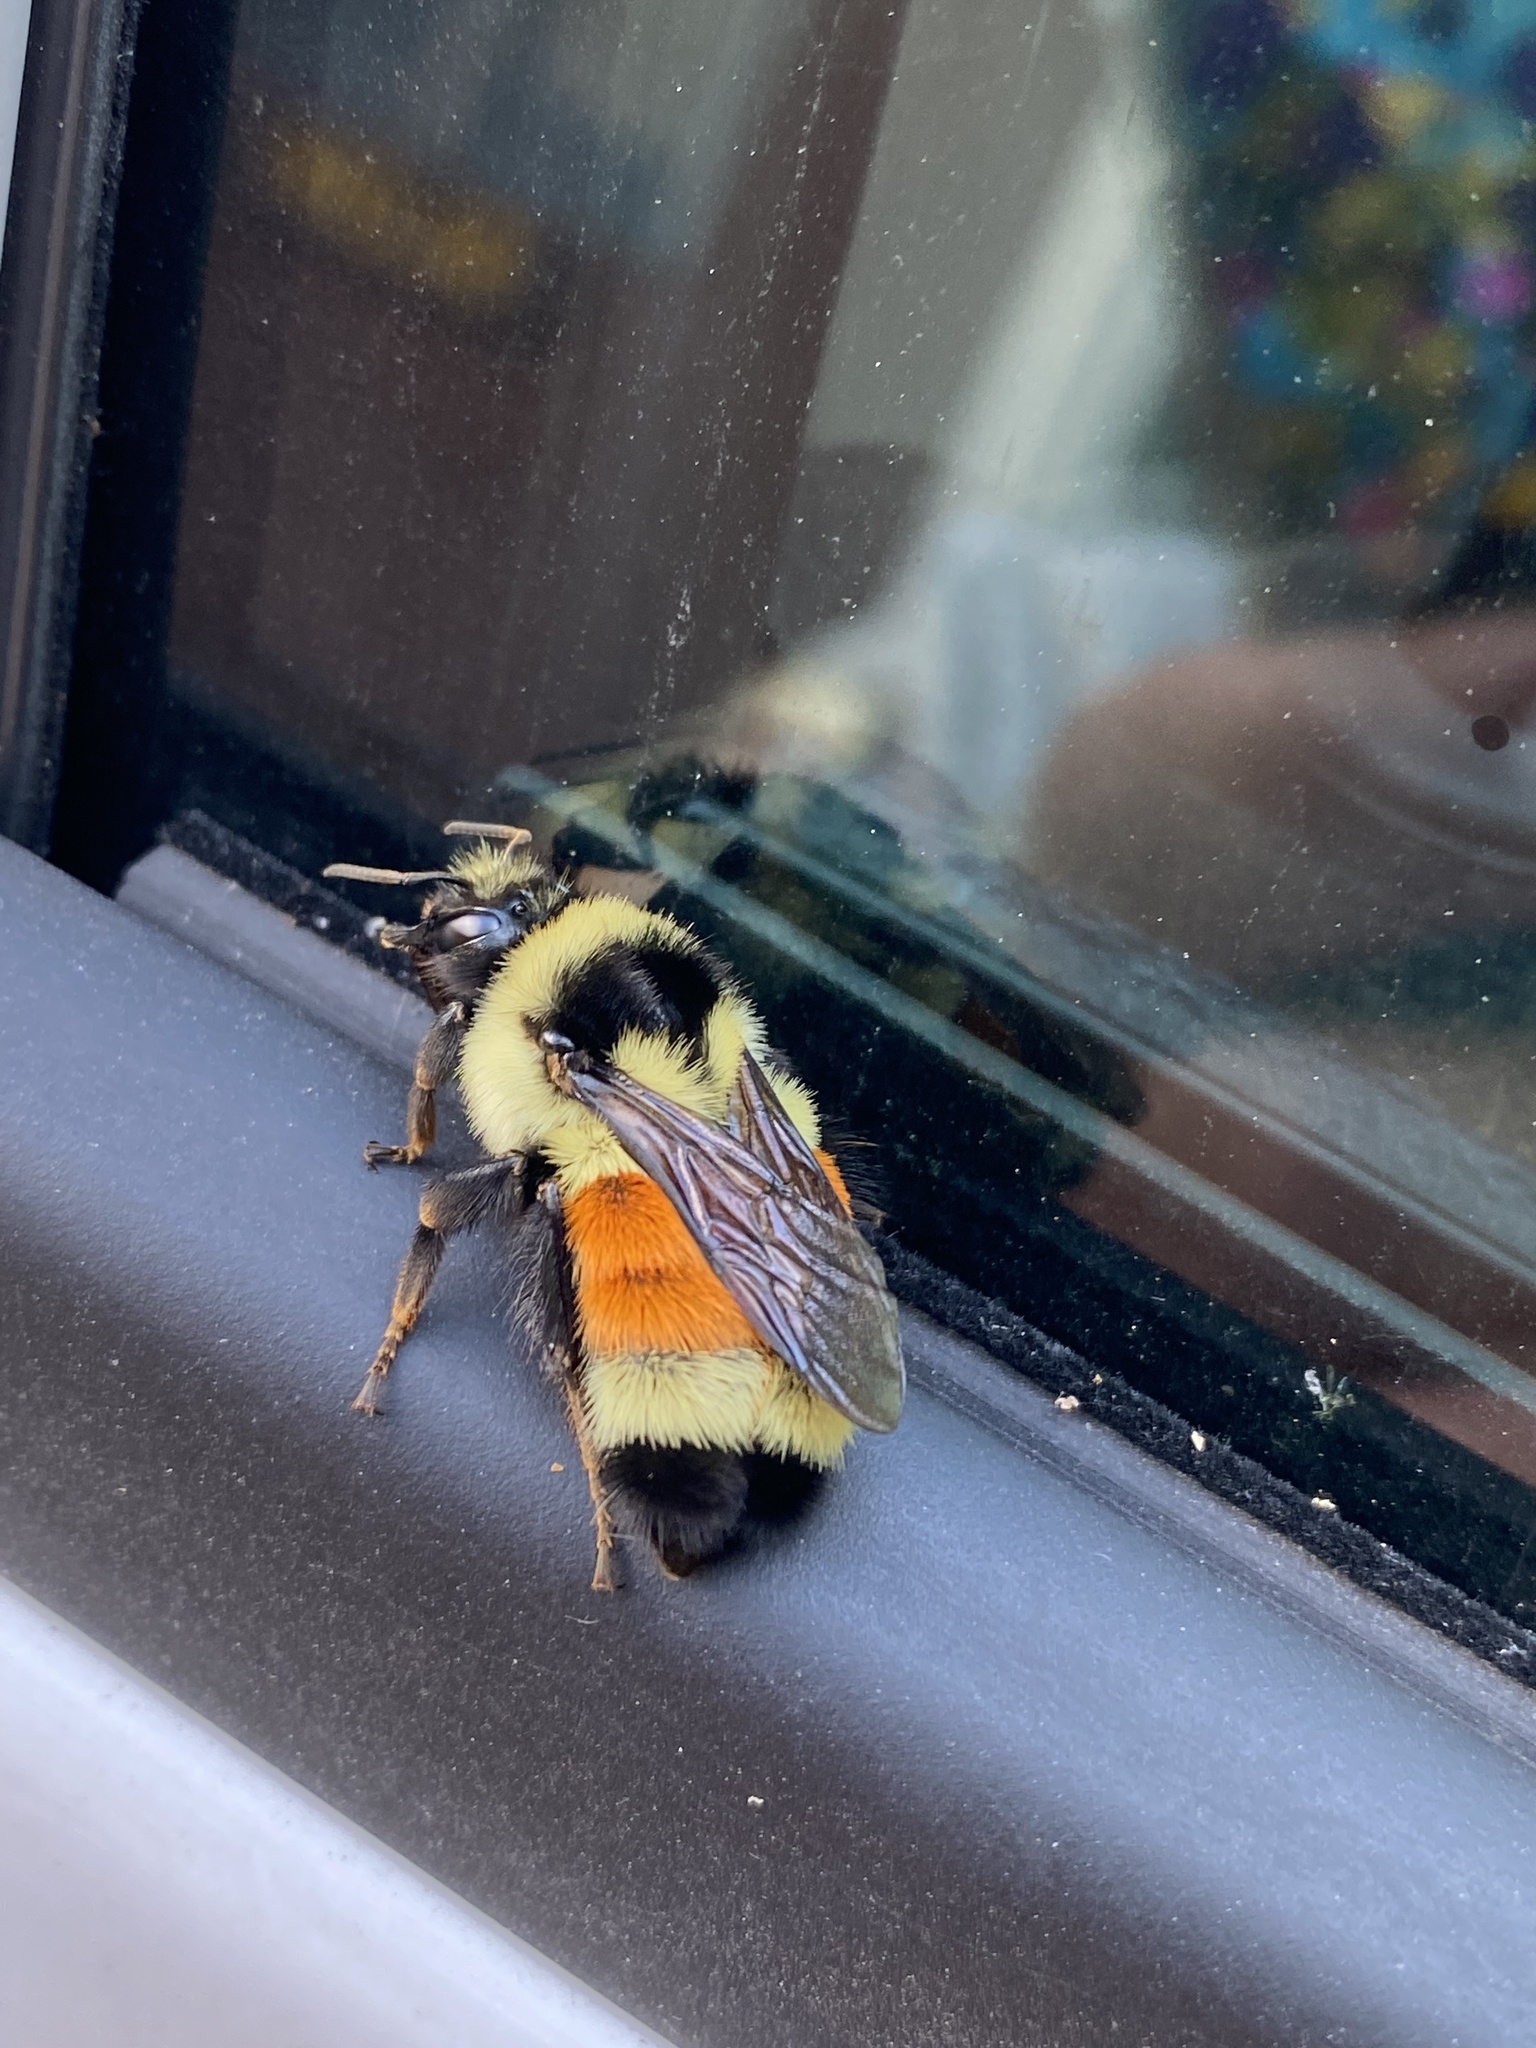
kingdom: Animalia
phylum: Arthropoda
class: Insecta
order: Hymenoptera
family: Apidae
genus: Bombus
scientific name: Bombus ternarius
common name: Tri-colored bumble bee
